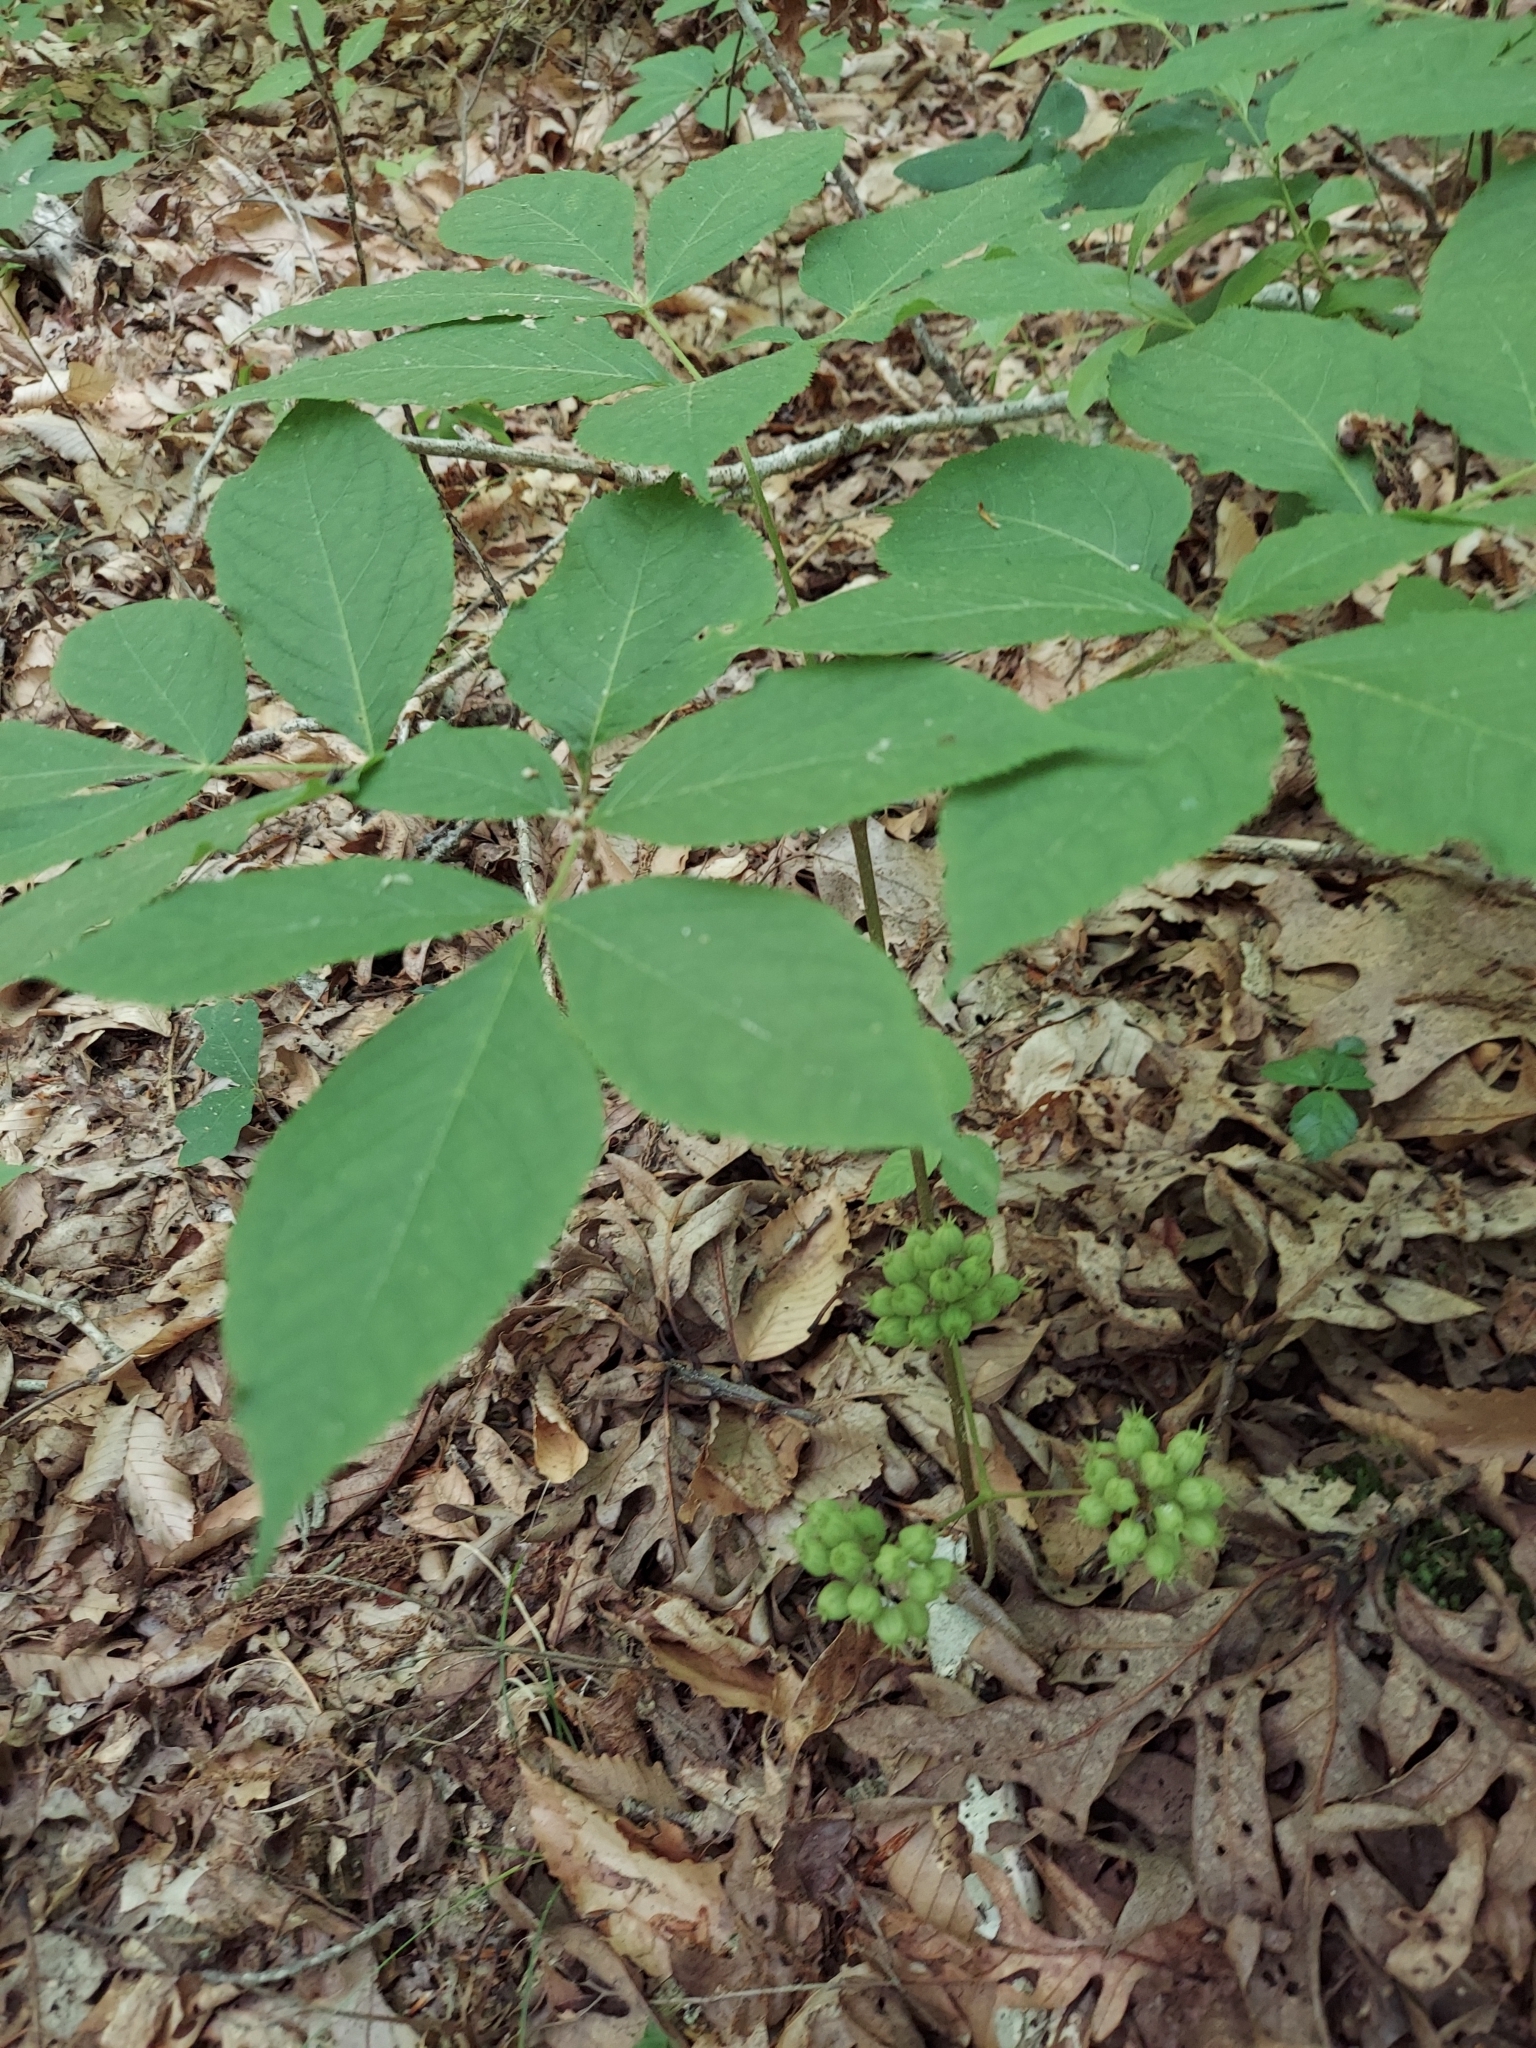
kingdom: Plantae
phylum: Tracheophyta
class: Magnoliopsida
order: Apiales
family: Araliaceae
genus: Aralia
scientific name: Aralia nudicaulis
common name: Wild sarsaparilla
